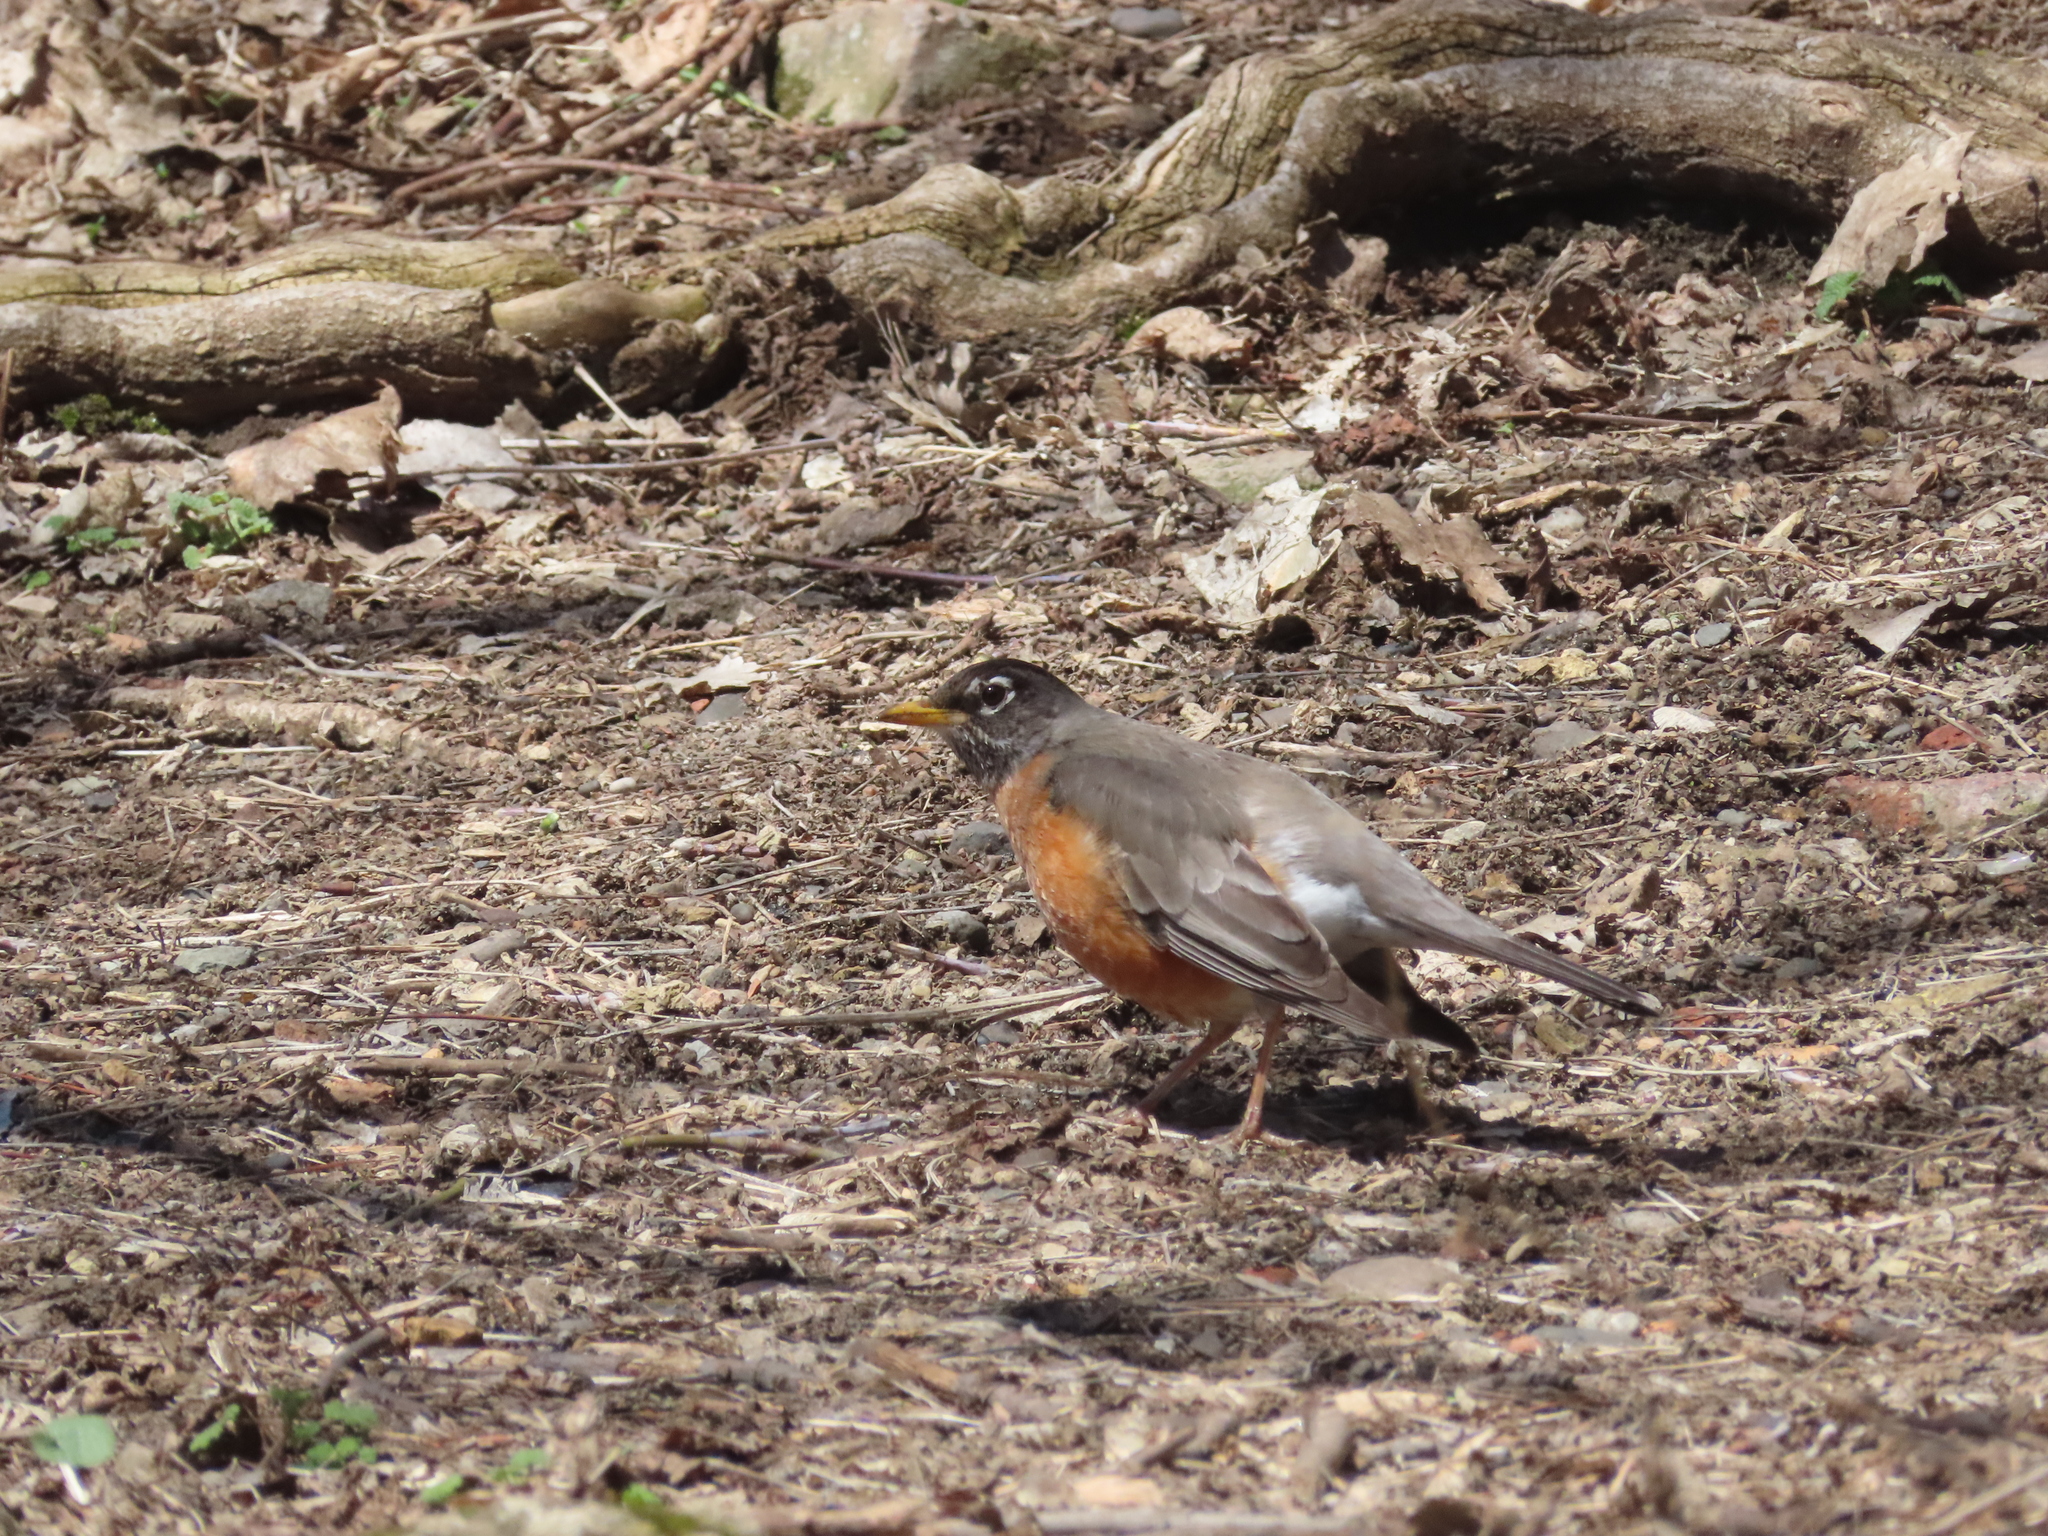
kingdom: Animalia
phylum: Chordata
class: Aves
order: Passeriformes
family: Turdidae
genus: Turdus
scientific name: Turdus migratorius
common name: American robin
